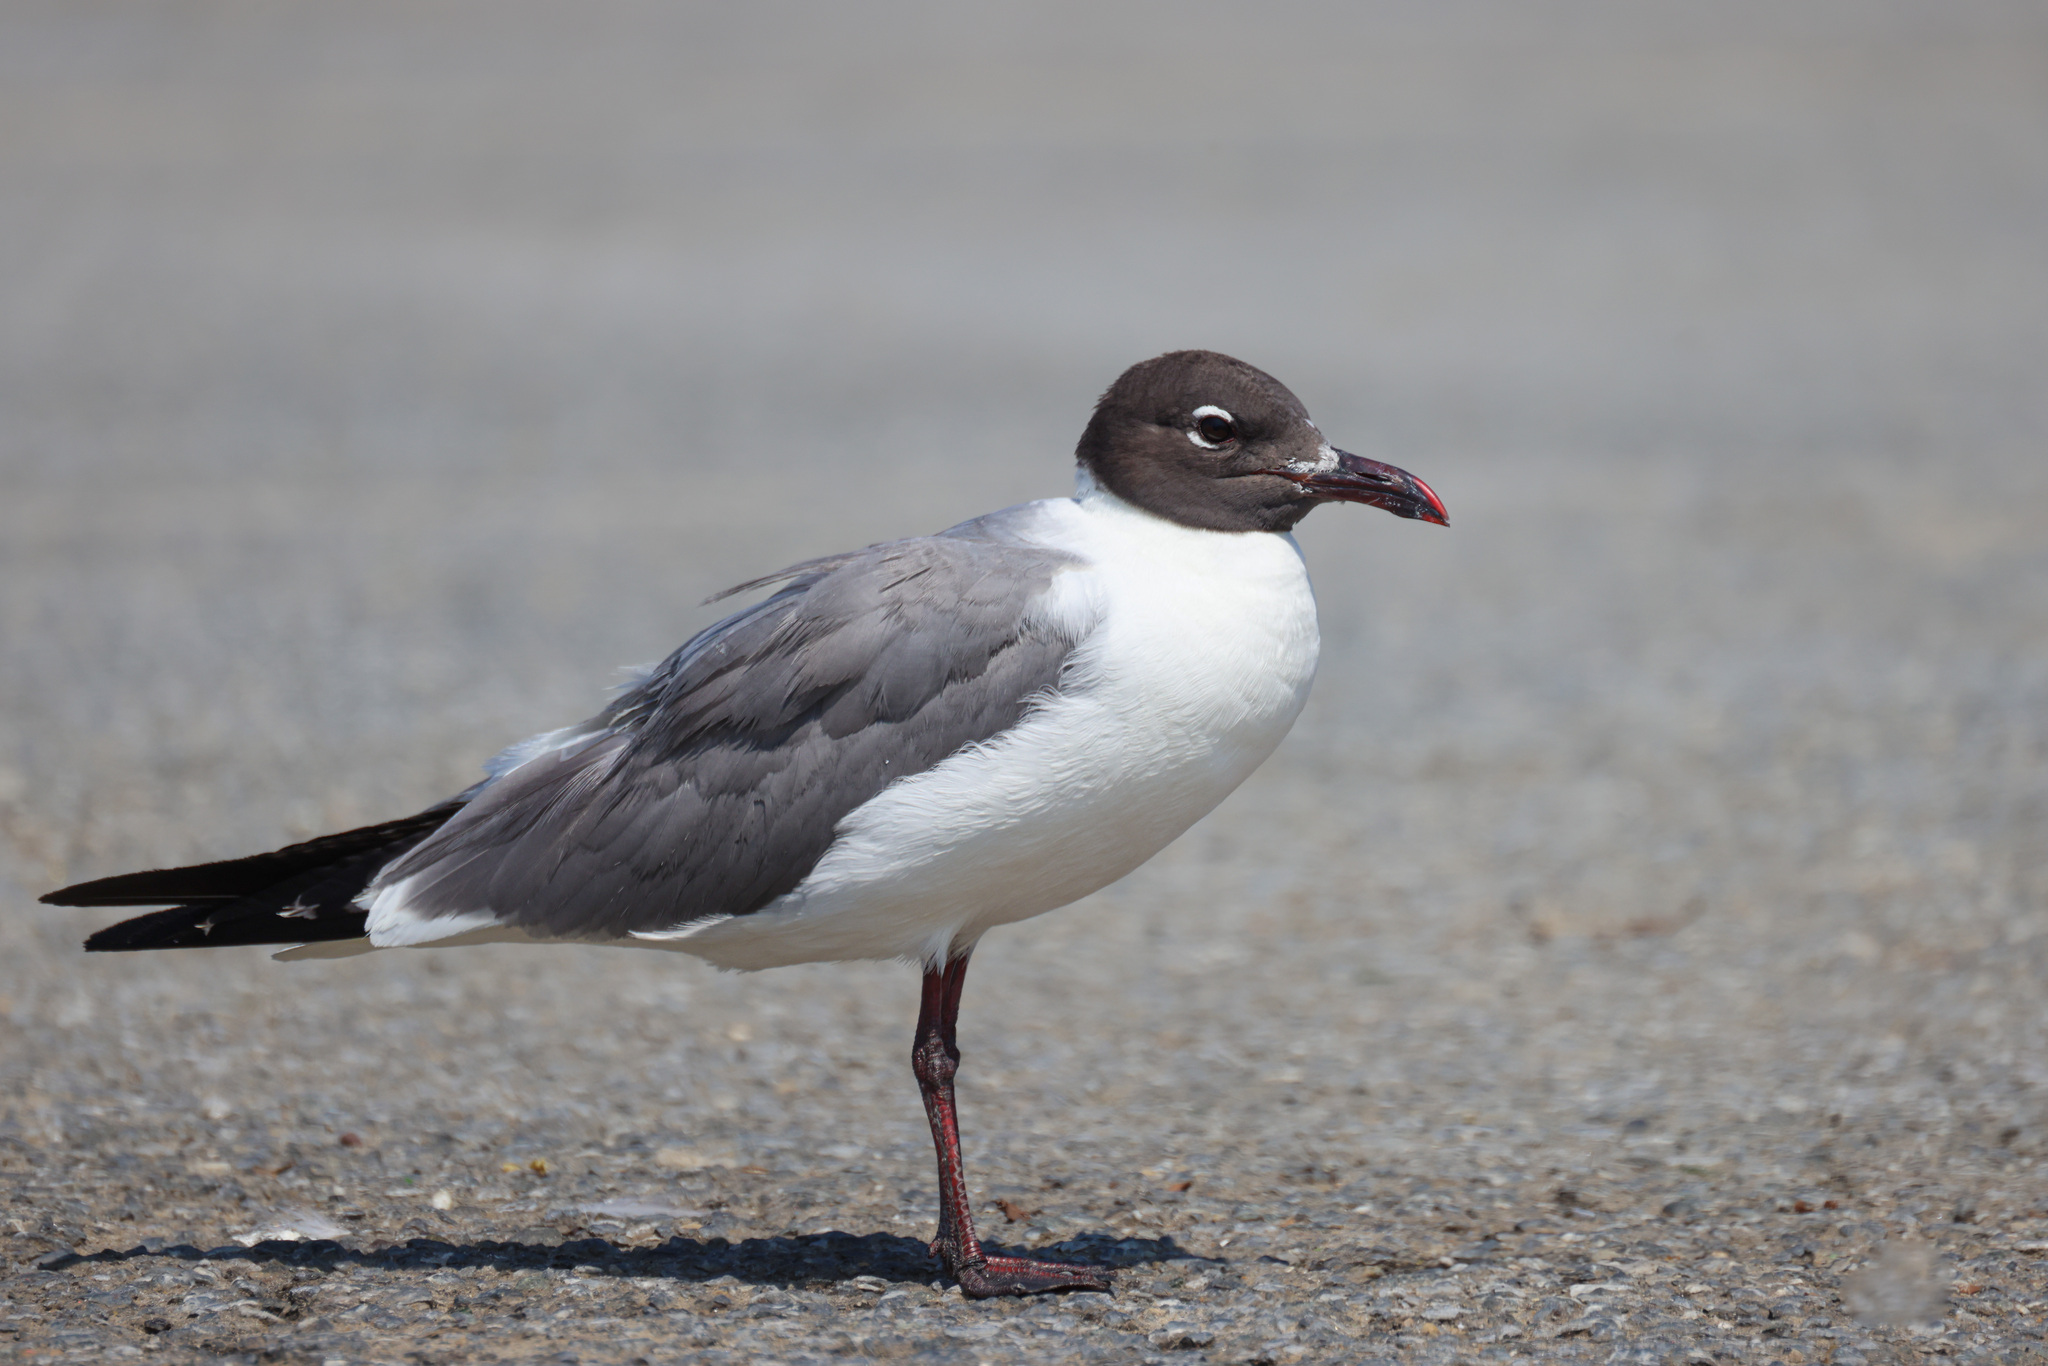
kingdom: Animalia
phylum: Chordata
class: Aves
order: Charadriiformes
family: Laridae
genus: Leucophaeus
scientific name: Leucophaeus atricilla
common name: Laughing gull
